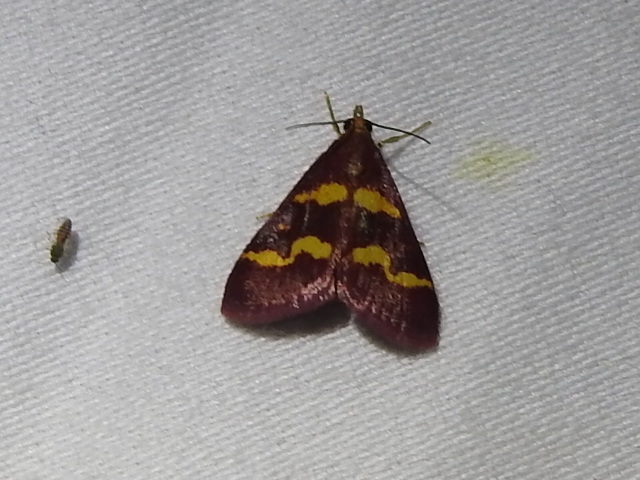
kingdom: Animalia
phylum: Arthropoda
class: Insecta
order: Lepidoptera
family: Crambidae
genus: Pyrausta
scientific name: Pyrausta tyralis
